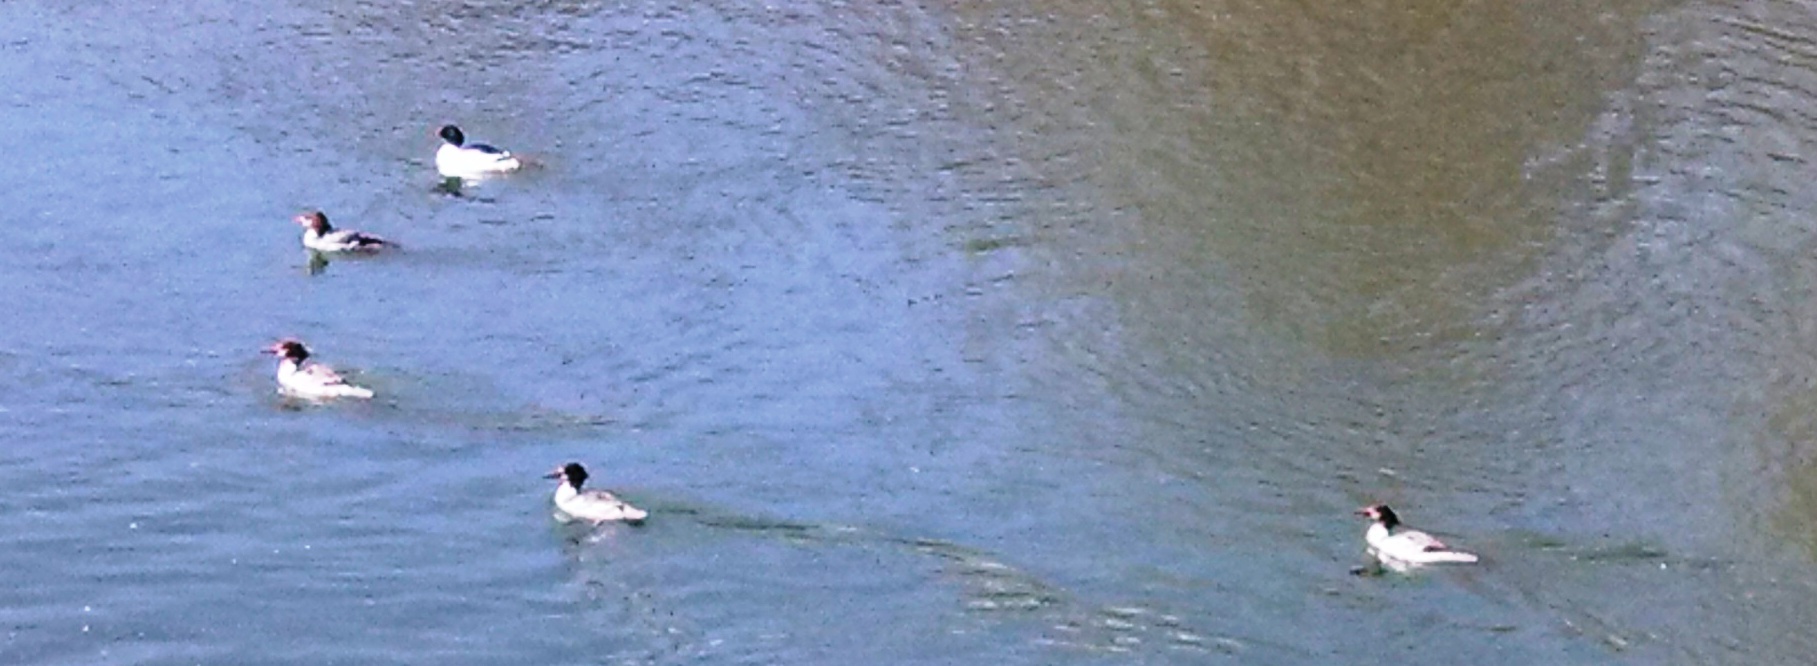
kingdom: Animalia
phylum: Chordata
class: Aves
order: Anseriformes
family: Anatidae
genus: Mergus
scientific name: Mergus merganser
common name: Common merganser
